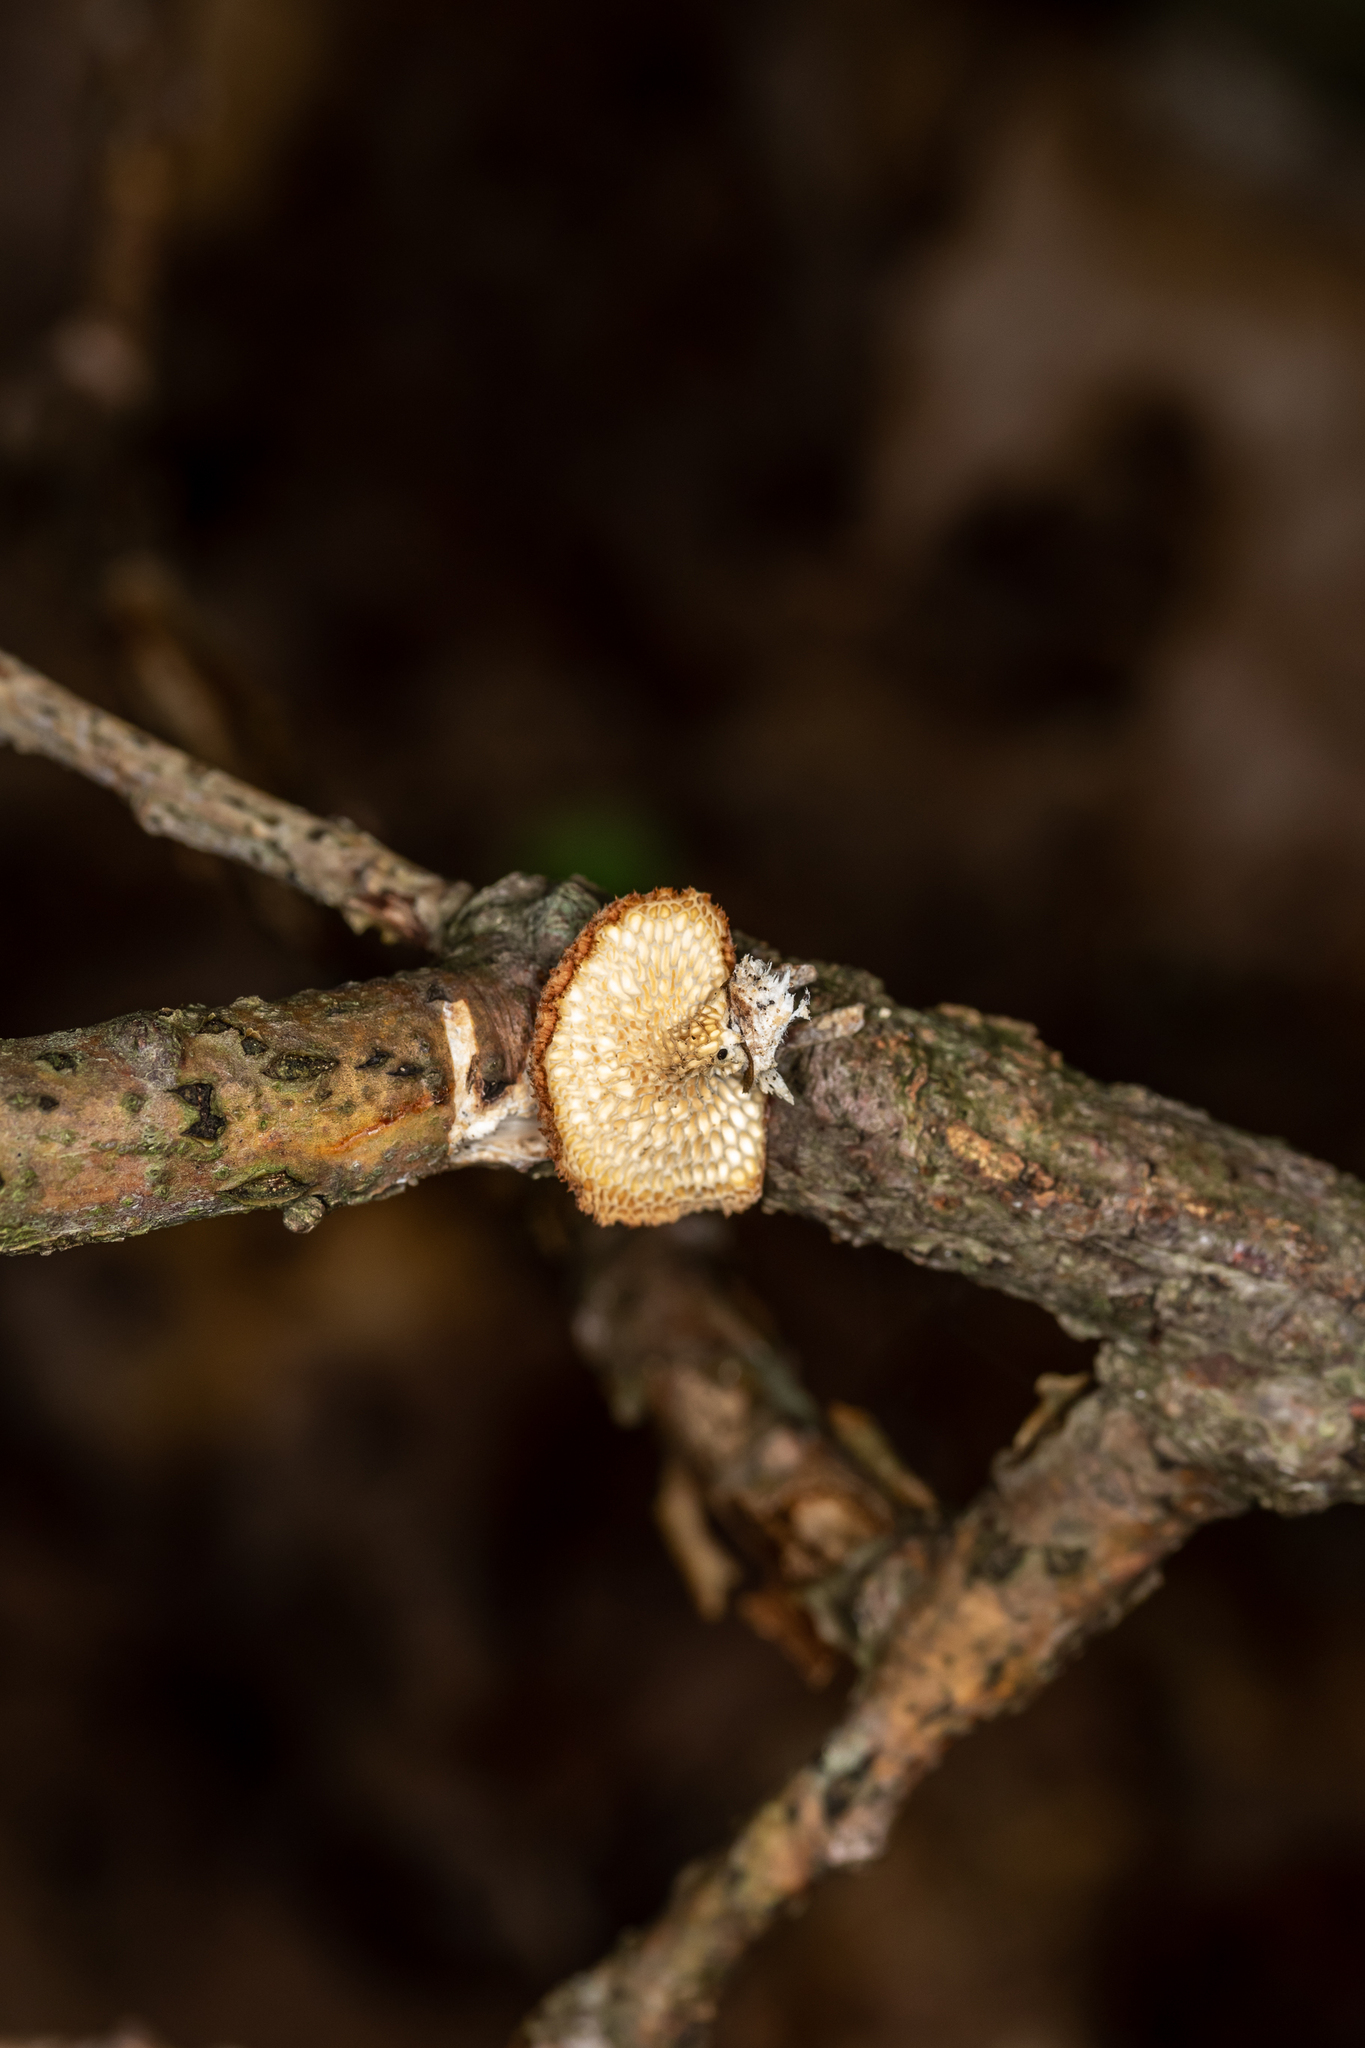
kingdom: Fungi
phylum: Basidiomycota
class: Agaricomycetes
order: Polyporales
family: Polyporaceae
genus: Neofavolus
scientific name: Neofavolus alveolaris
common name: Hexagonal-pored polypore
